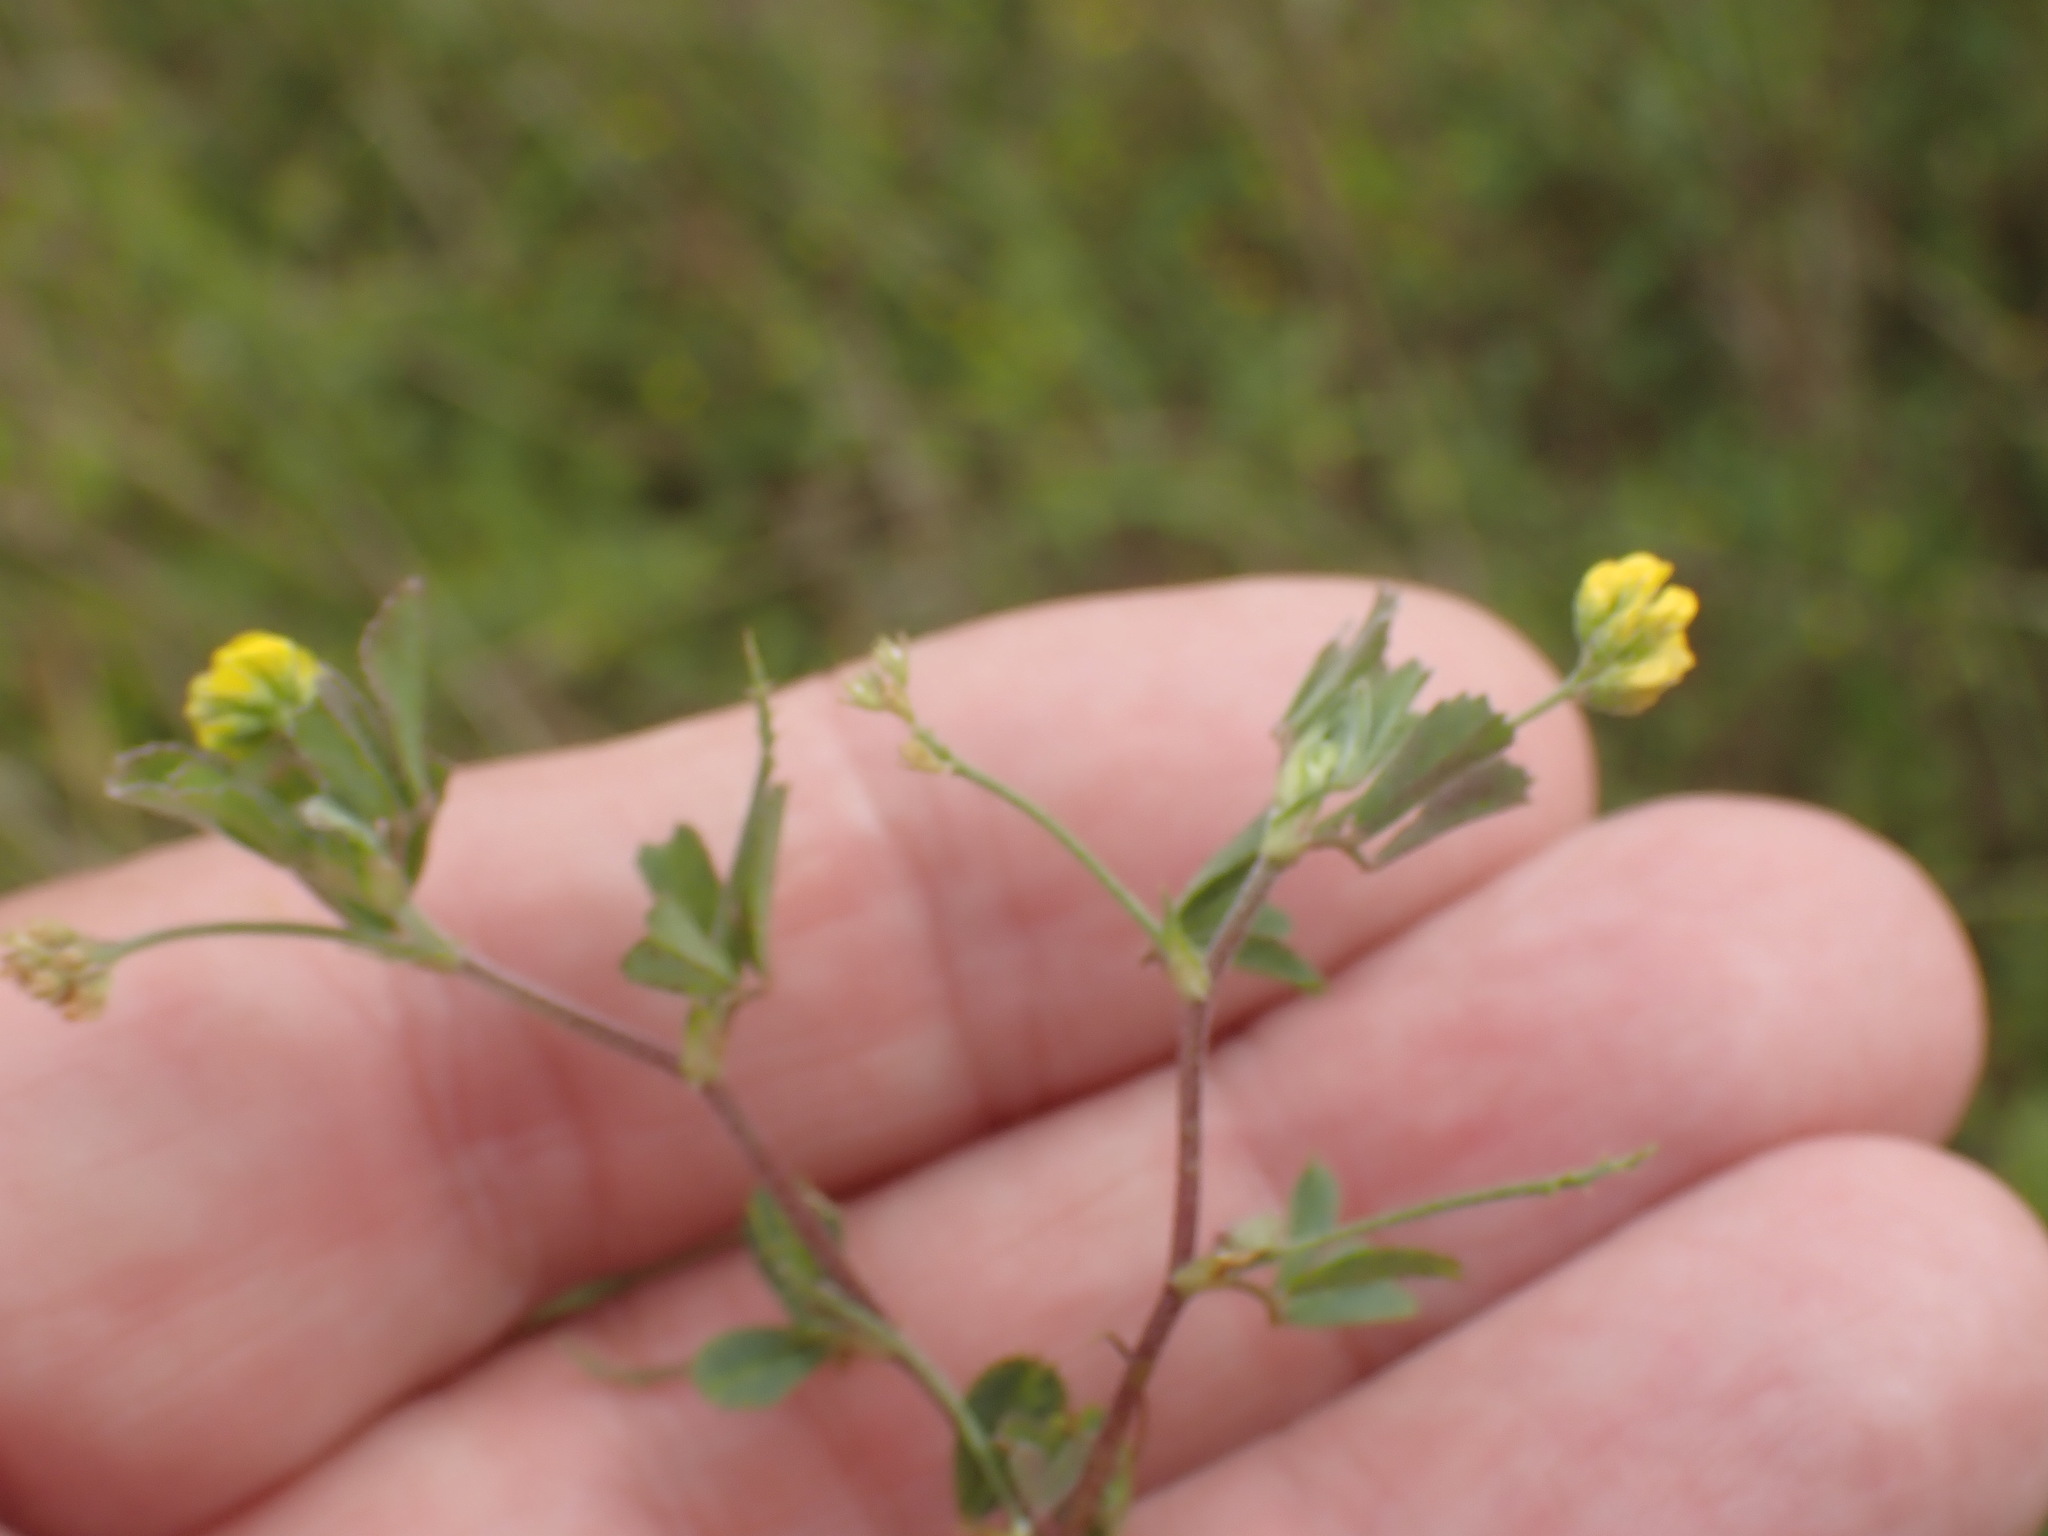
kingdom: Plantae
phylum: Tracheophyta
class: Magnoliopsida
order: Fabales
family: Fabaceae
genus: Medicago
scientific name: Medicago lupulina
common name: Black medick
